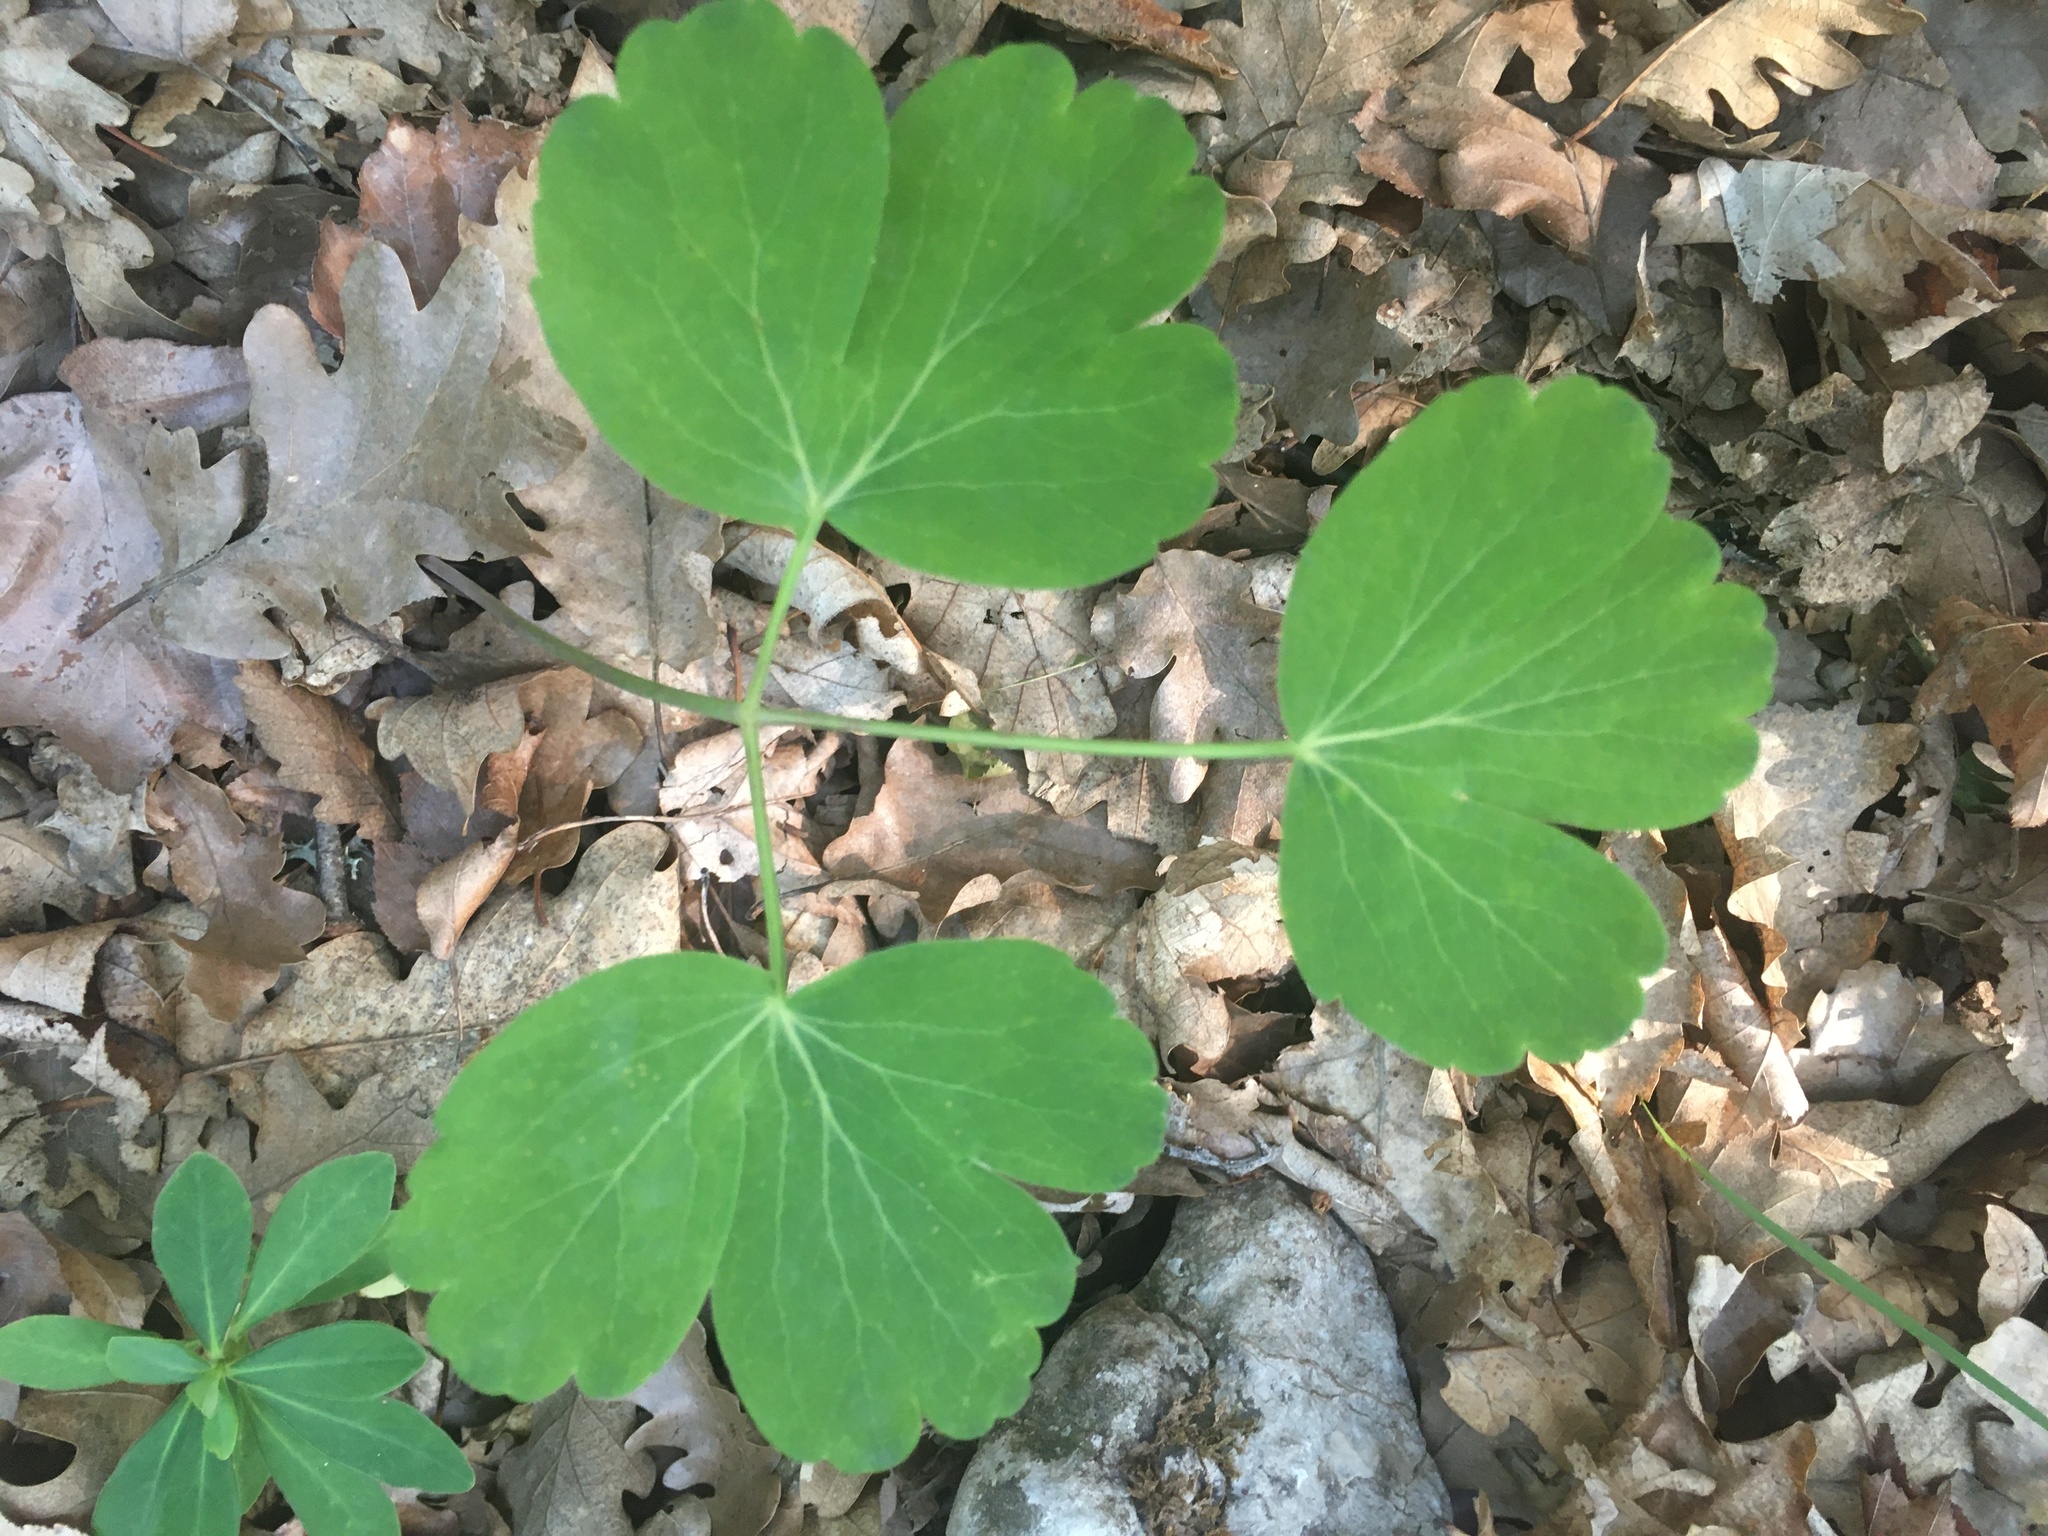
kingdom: Plantae
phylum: Tracheophyta
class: Magnoliopsida
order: Apiales
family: Apiaceae
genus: Laser
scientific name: Laser trilobum
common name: Laser
